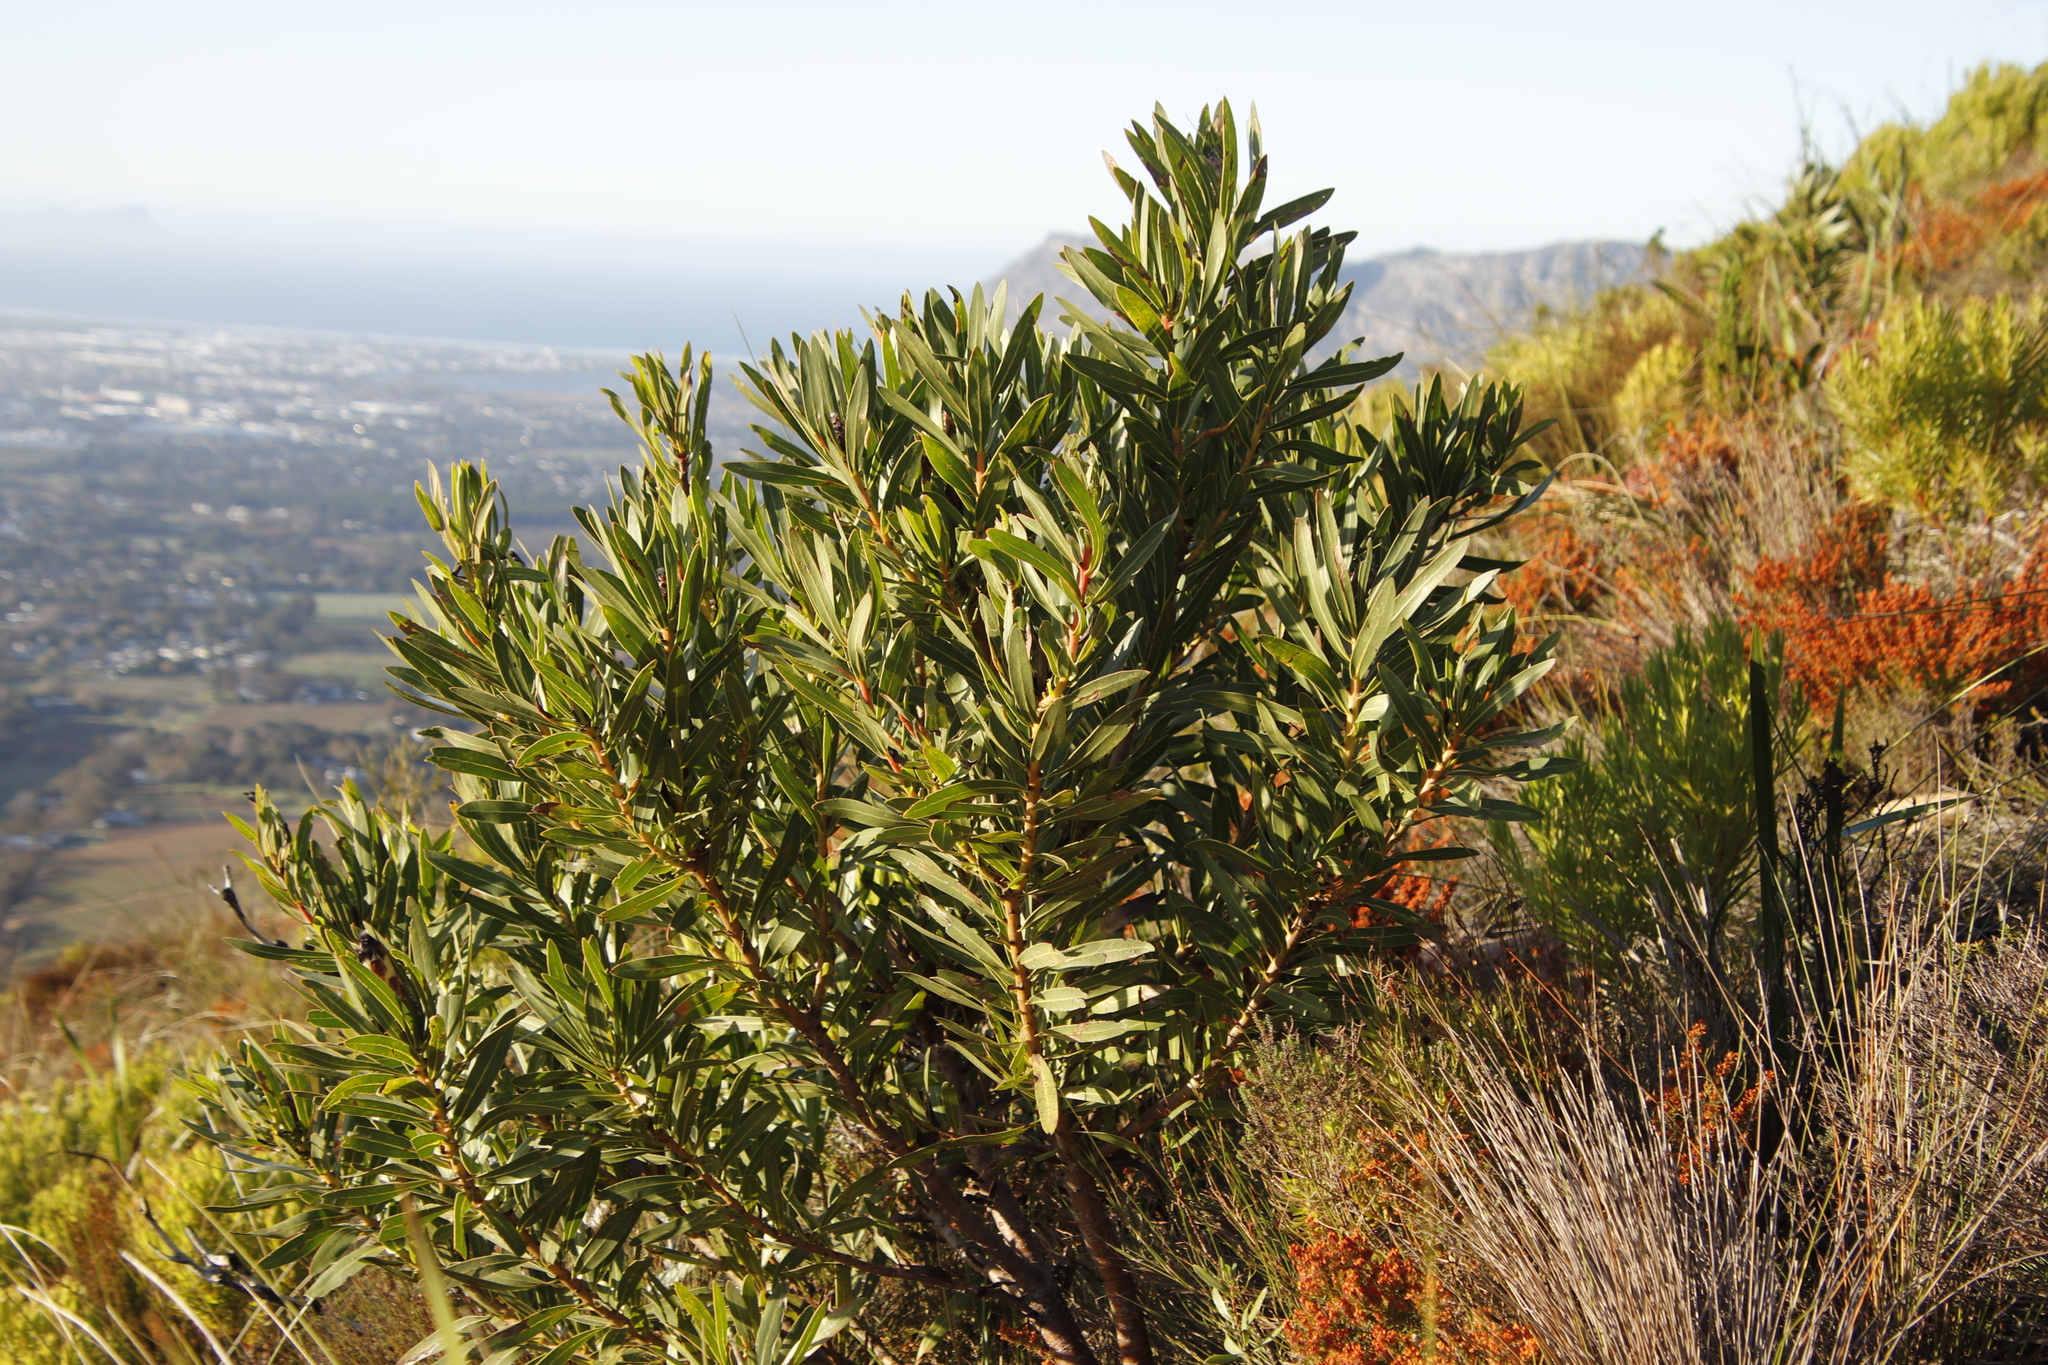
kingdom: Plantae
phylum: Tracheophyta
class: Magnoliopsida
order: Proteales
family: Proteaceae
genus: Protea
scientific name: Protea lepidocarpodendron
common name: Black-bearded protea
